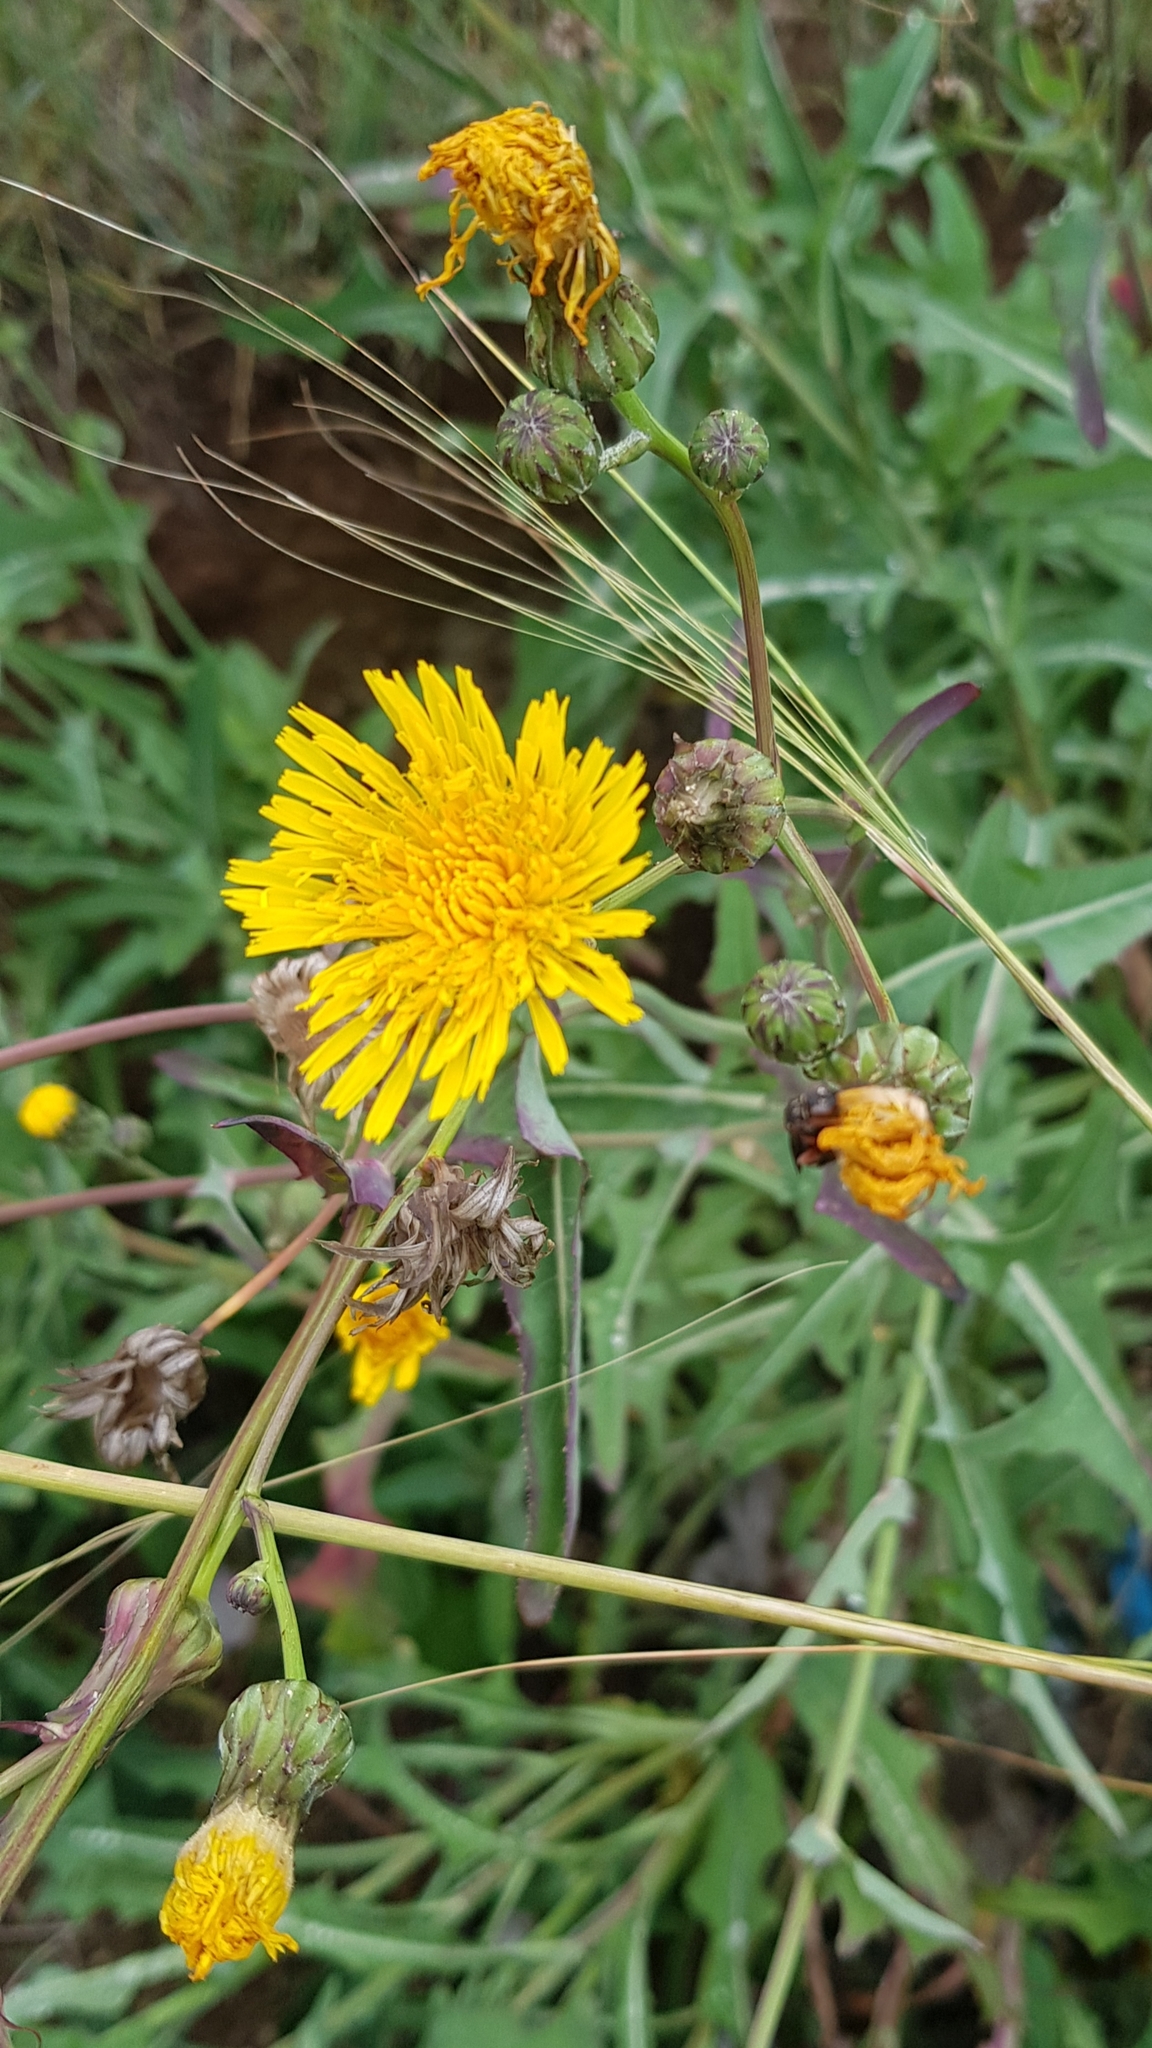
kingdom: Plantae
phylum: Tracheophyta
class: Magnoliopsida
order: Asterales
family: Asteraceae
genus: Sonchus
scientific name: Sonchus oleraceus
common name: Common sowthistle
